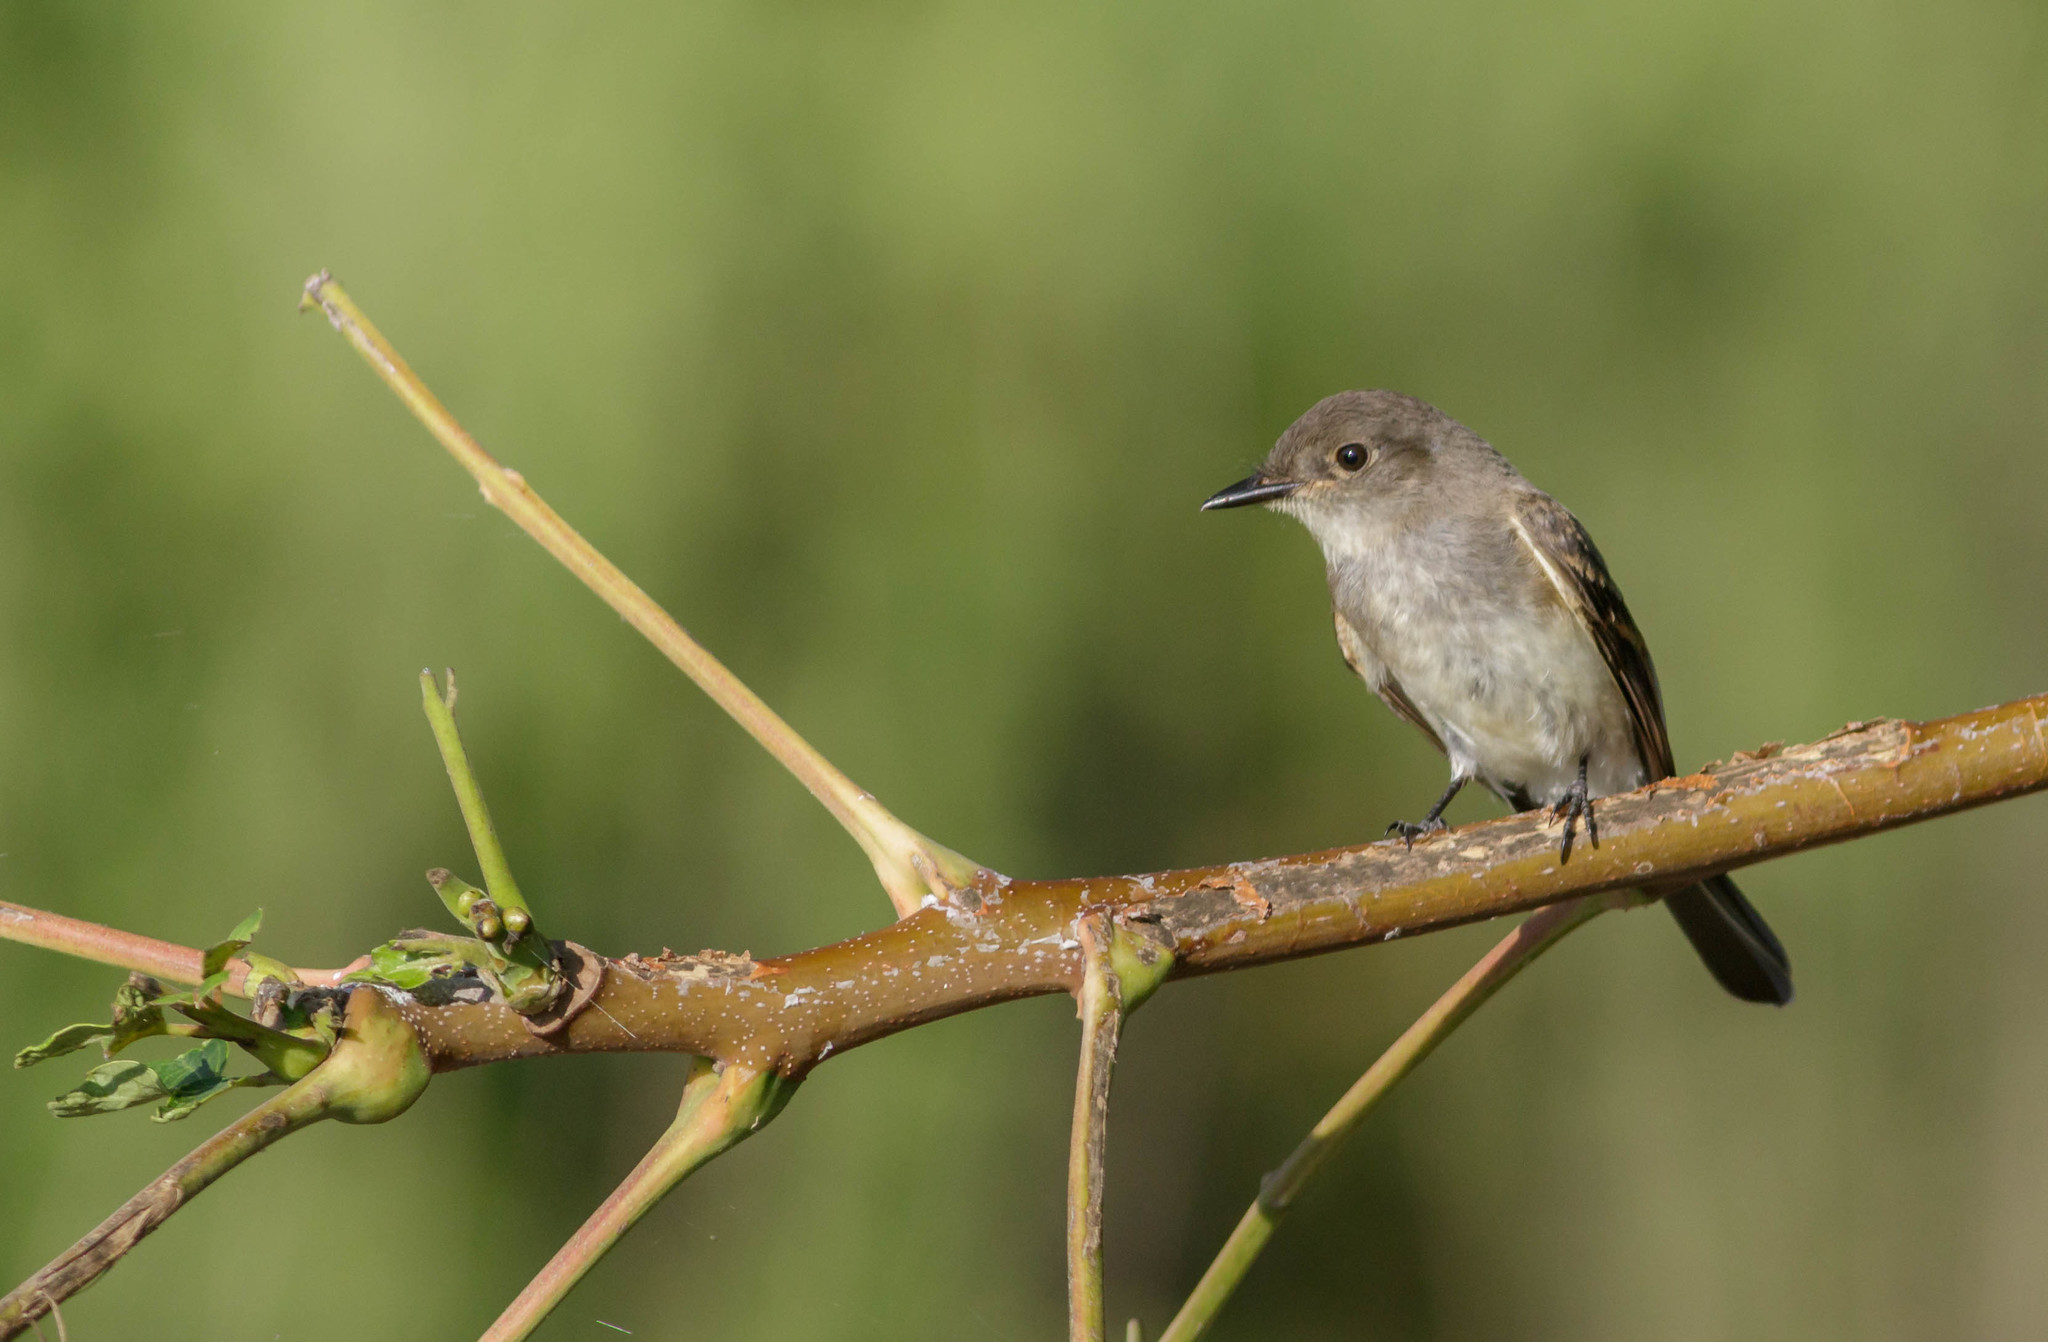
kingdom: Animalia
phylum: Chordata
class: Aves
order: Passeriformes
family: Tyrannidae
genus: Sayornis
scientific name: Sayornis phoebe
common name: Eastern phoebe
